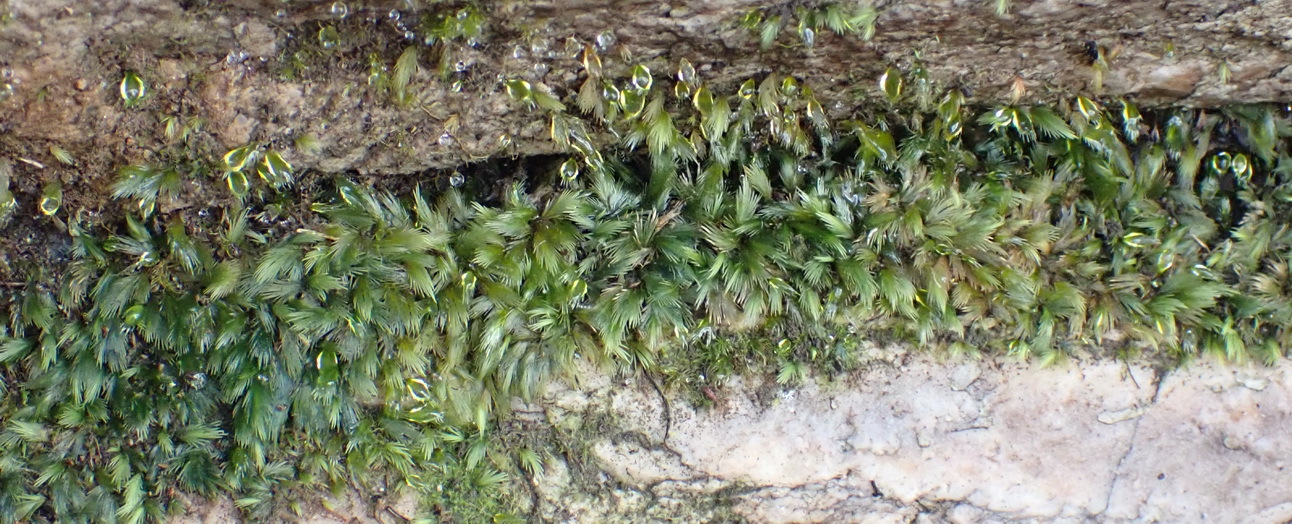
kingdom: Plantae
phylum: Bryophyta
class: Bryopsida
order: Dicranales
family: Fissidentaceae
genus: Fissidens
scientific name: Fissidens ovatus
